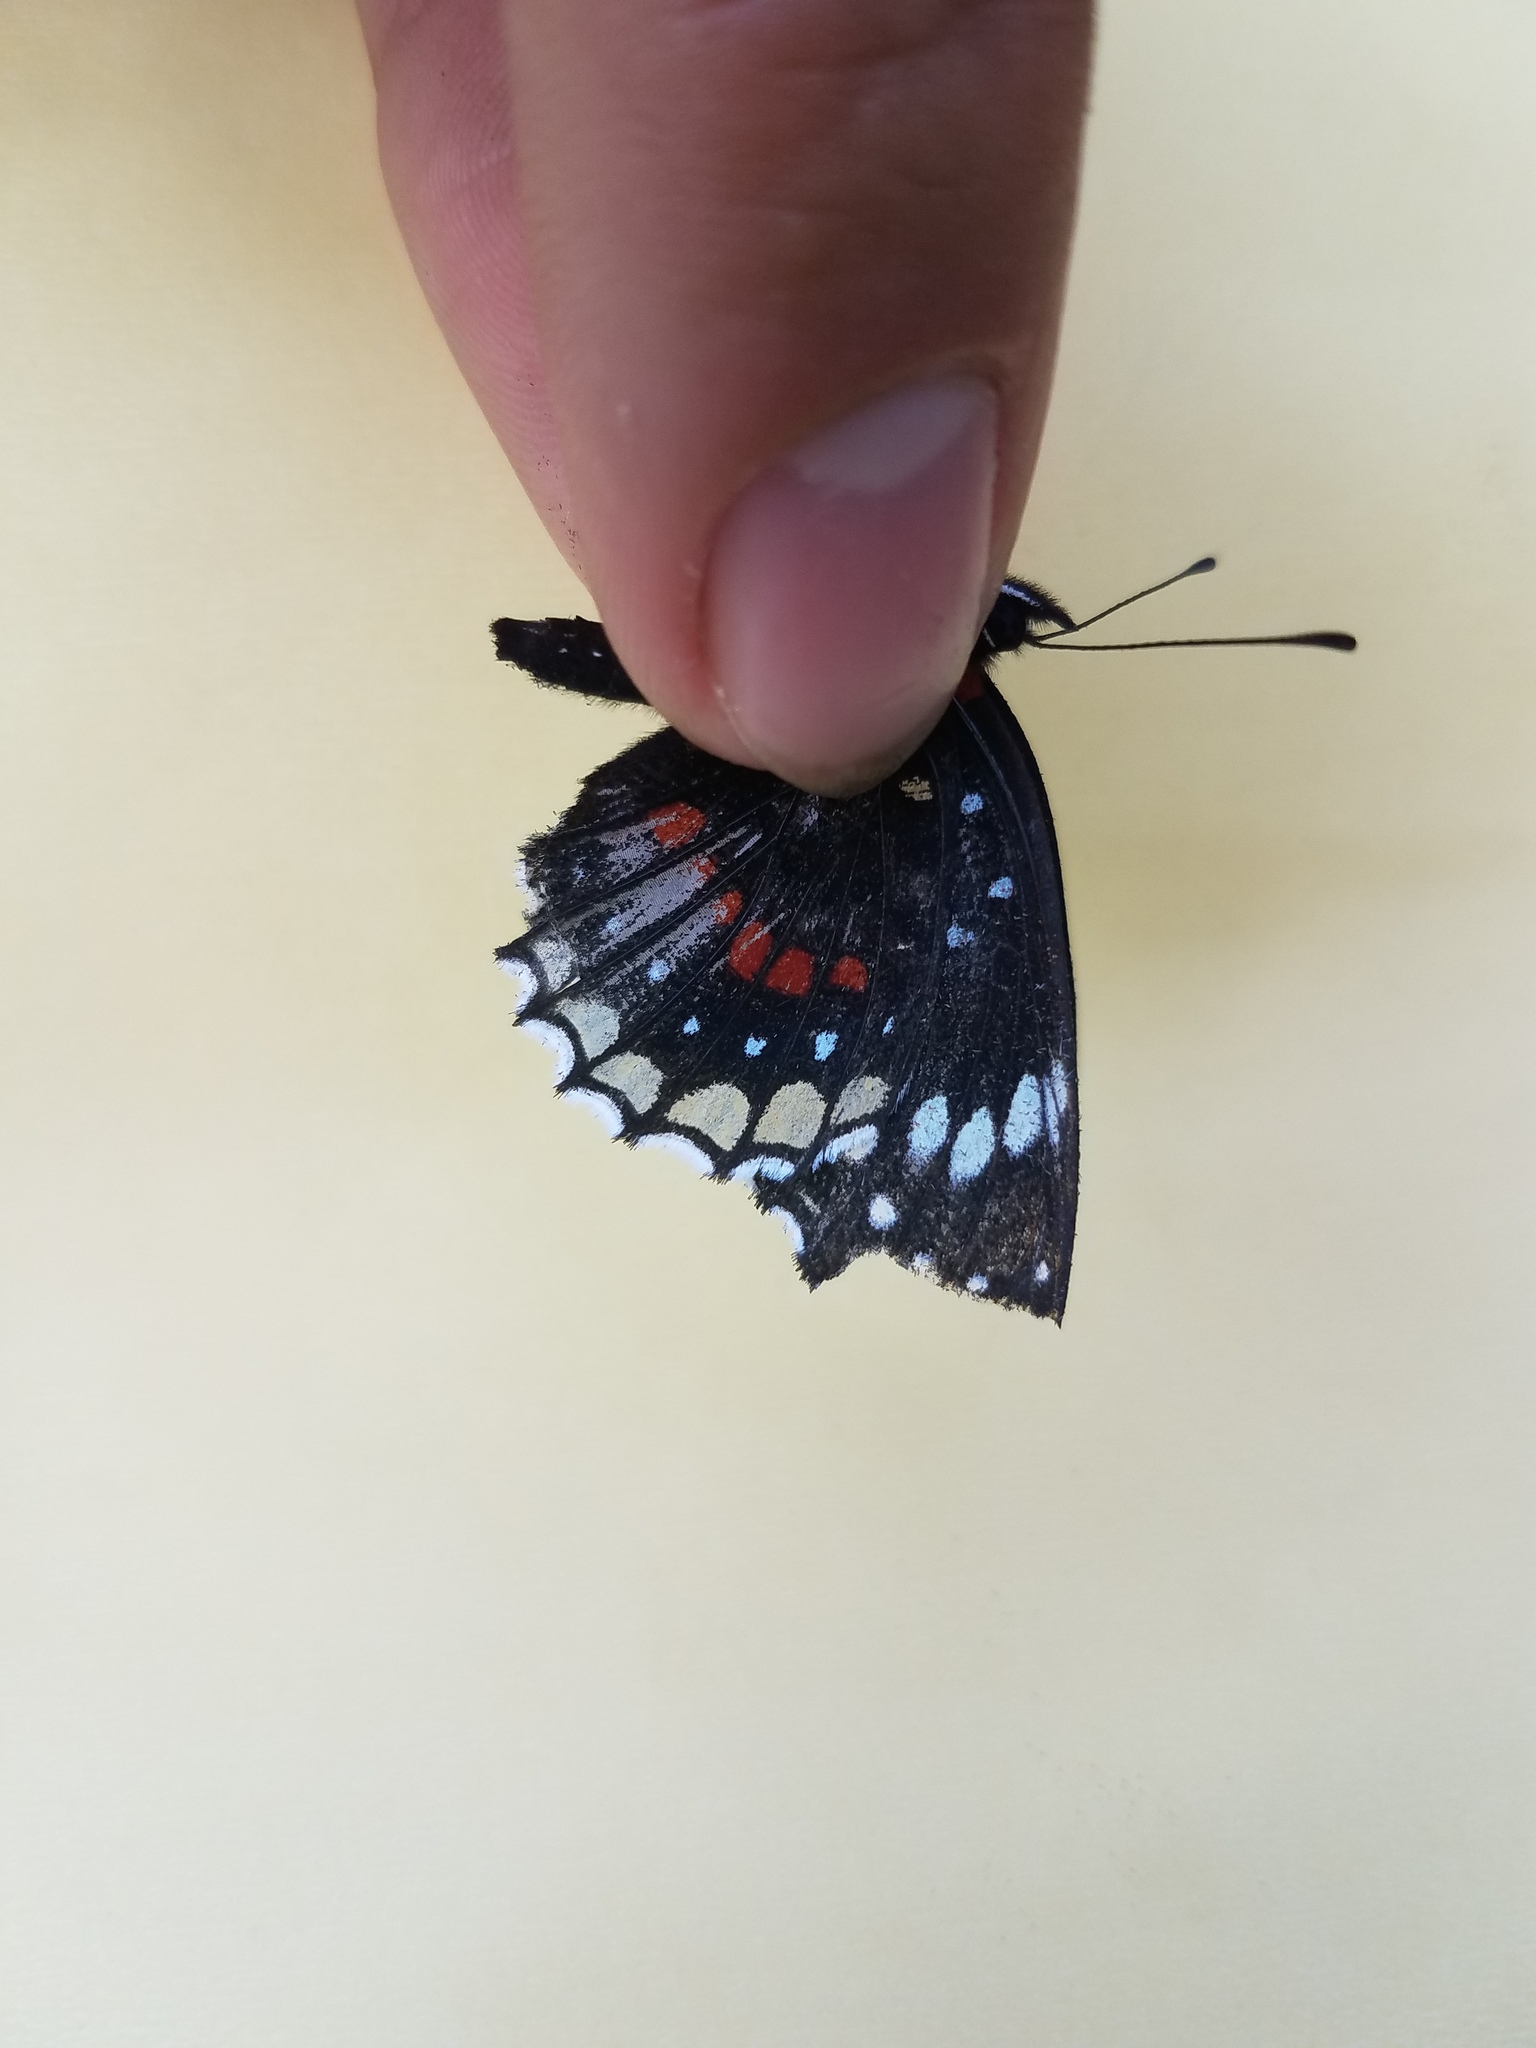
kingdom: Animalia
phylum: Arthropoda
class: Insecta
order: Lepidoptera
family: Nymphalidae
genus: Chlosyne
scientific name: Chlosyne hippodrome
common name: Simple patch
